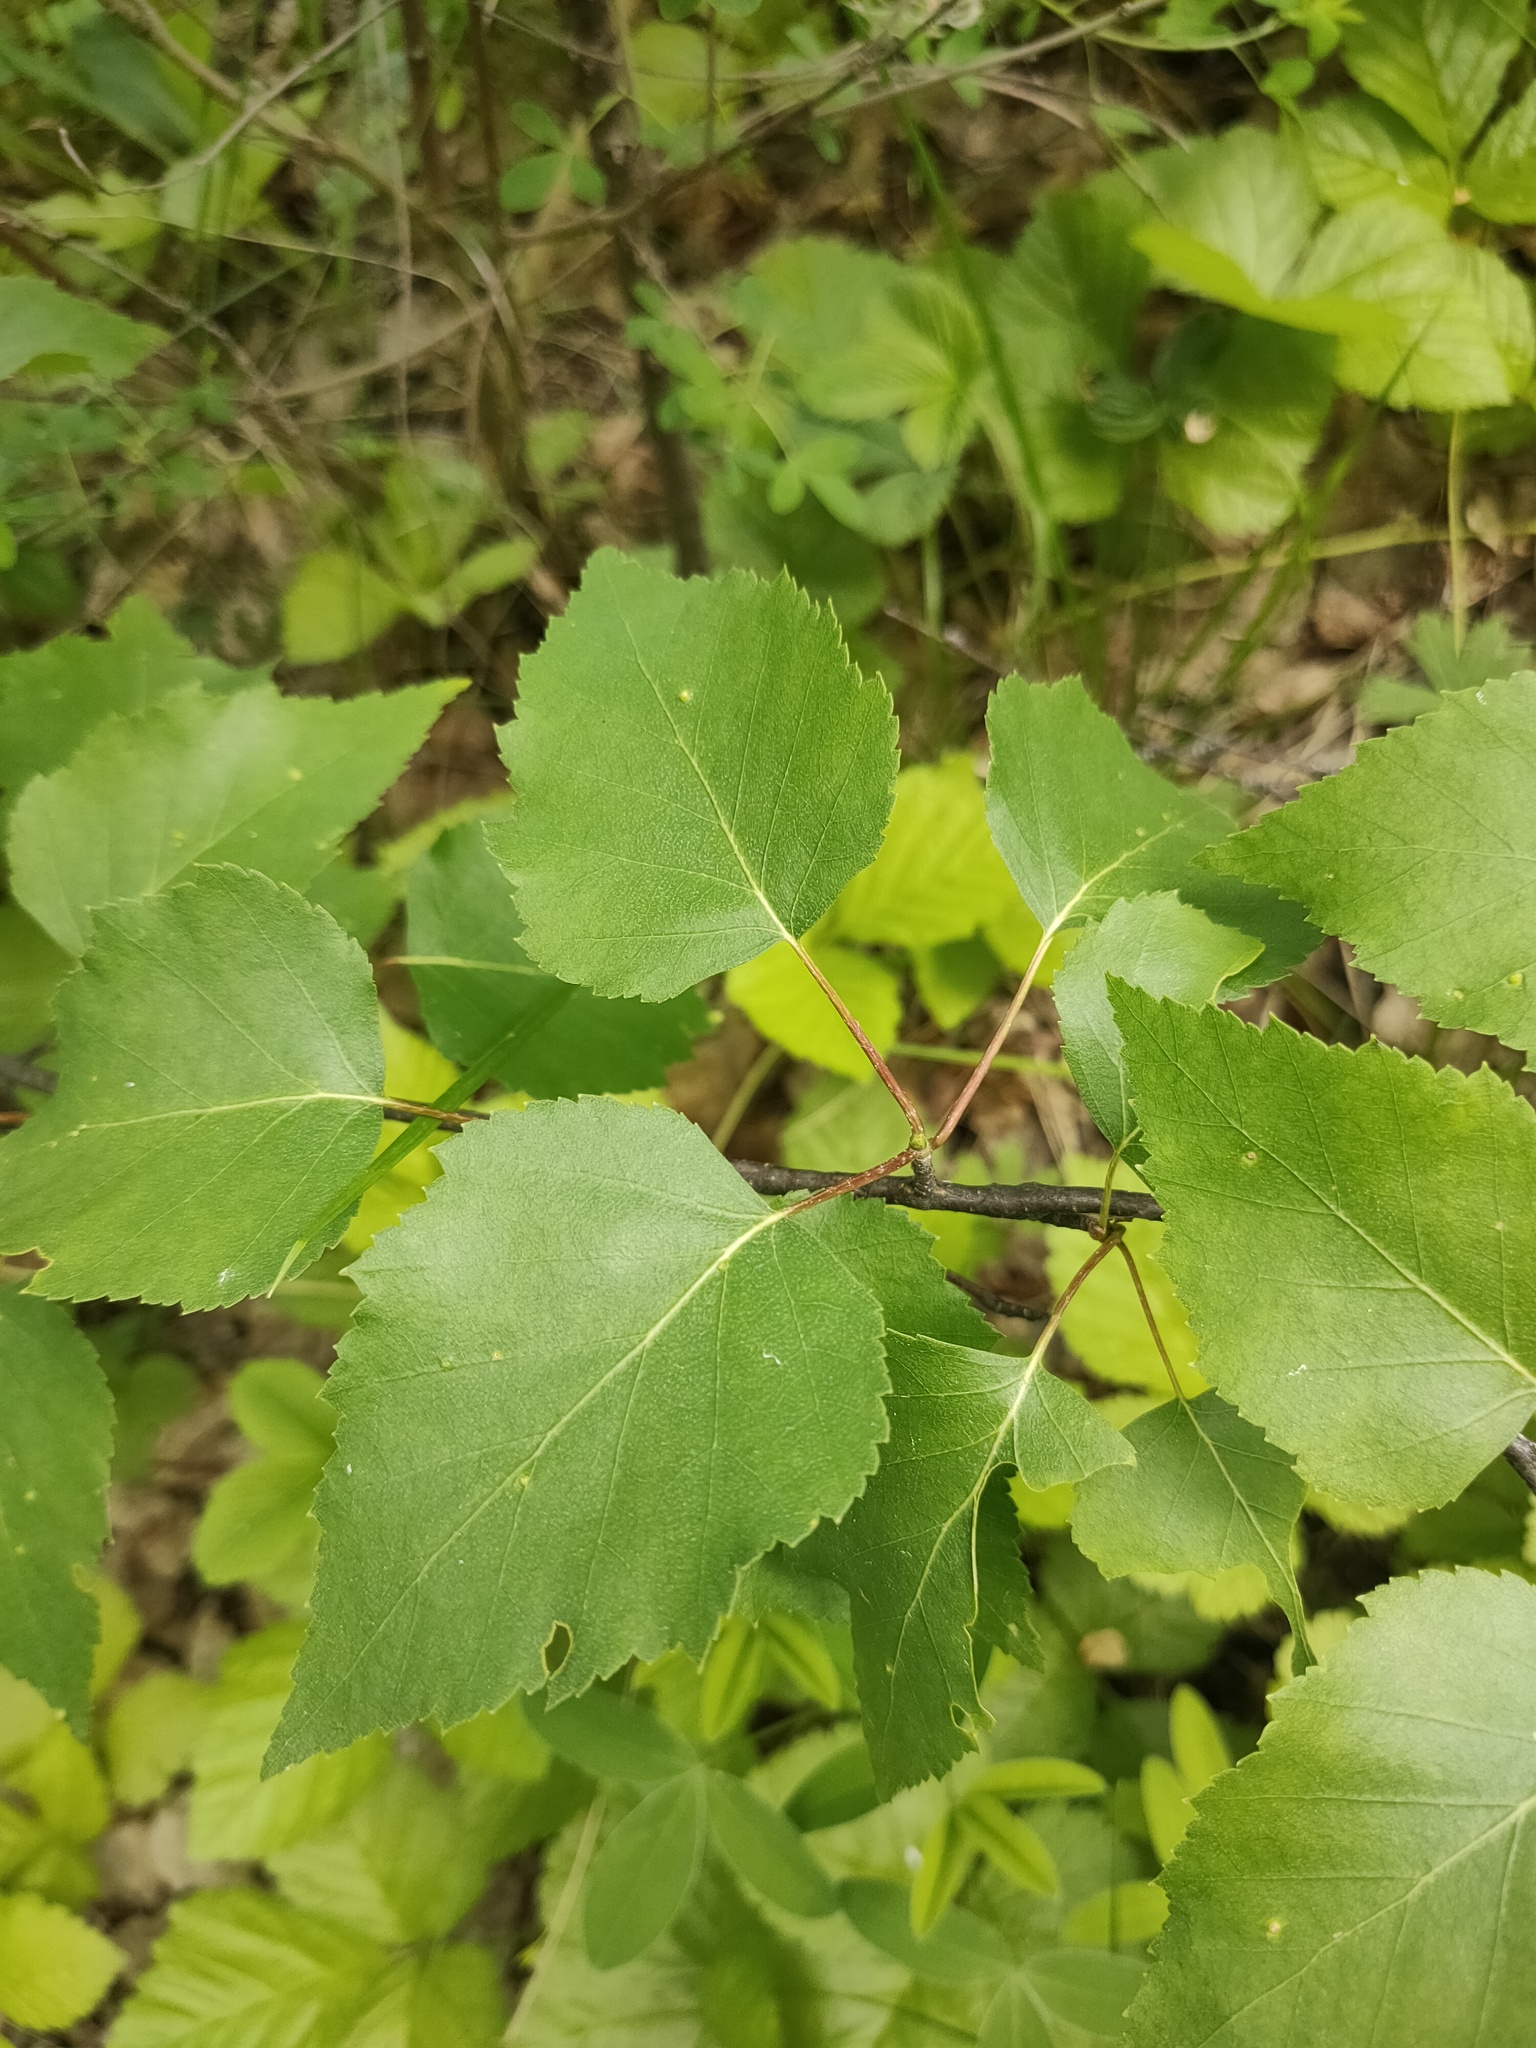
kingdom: Plantae
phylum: Tracheophyta
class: Magnoliopsida
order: Fagales
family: Betulaceae
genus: Betula
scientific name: Betula pendula
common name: Silver birch
